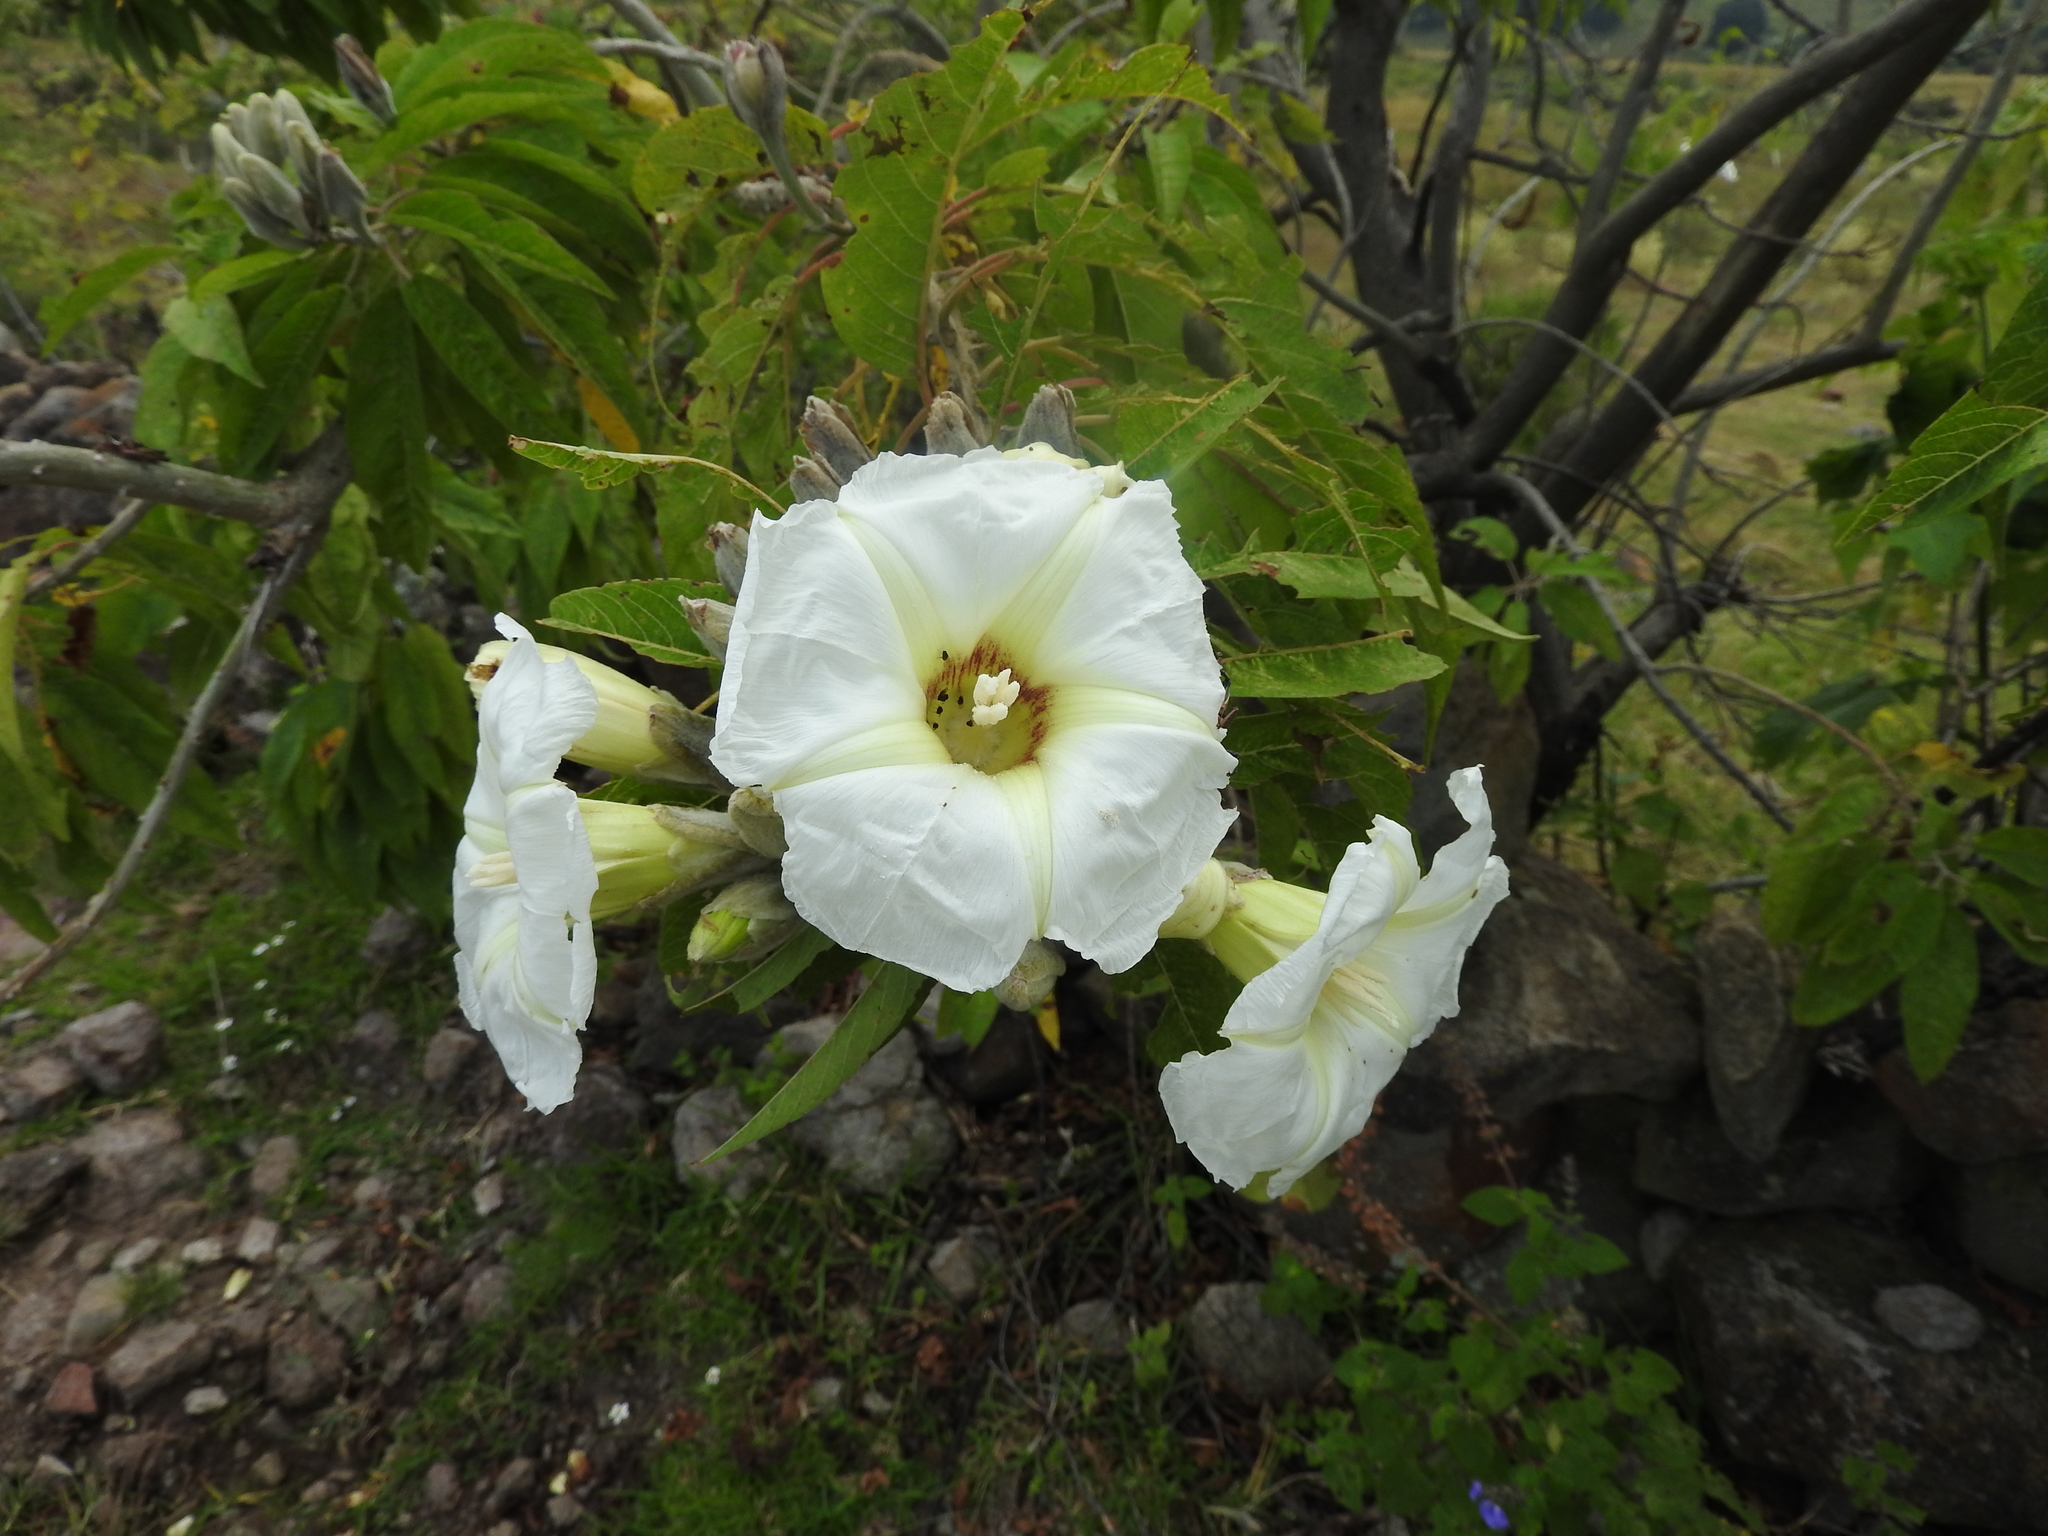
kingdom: Plantae
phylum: Tracheophyta
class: Magnoliopsida
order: Solanales
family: Convolvulaceae
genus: Ipomoea
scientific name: Ipomoea murucoides
